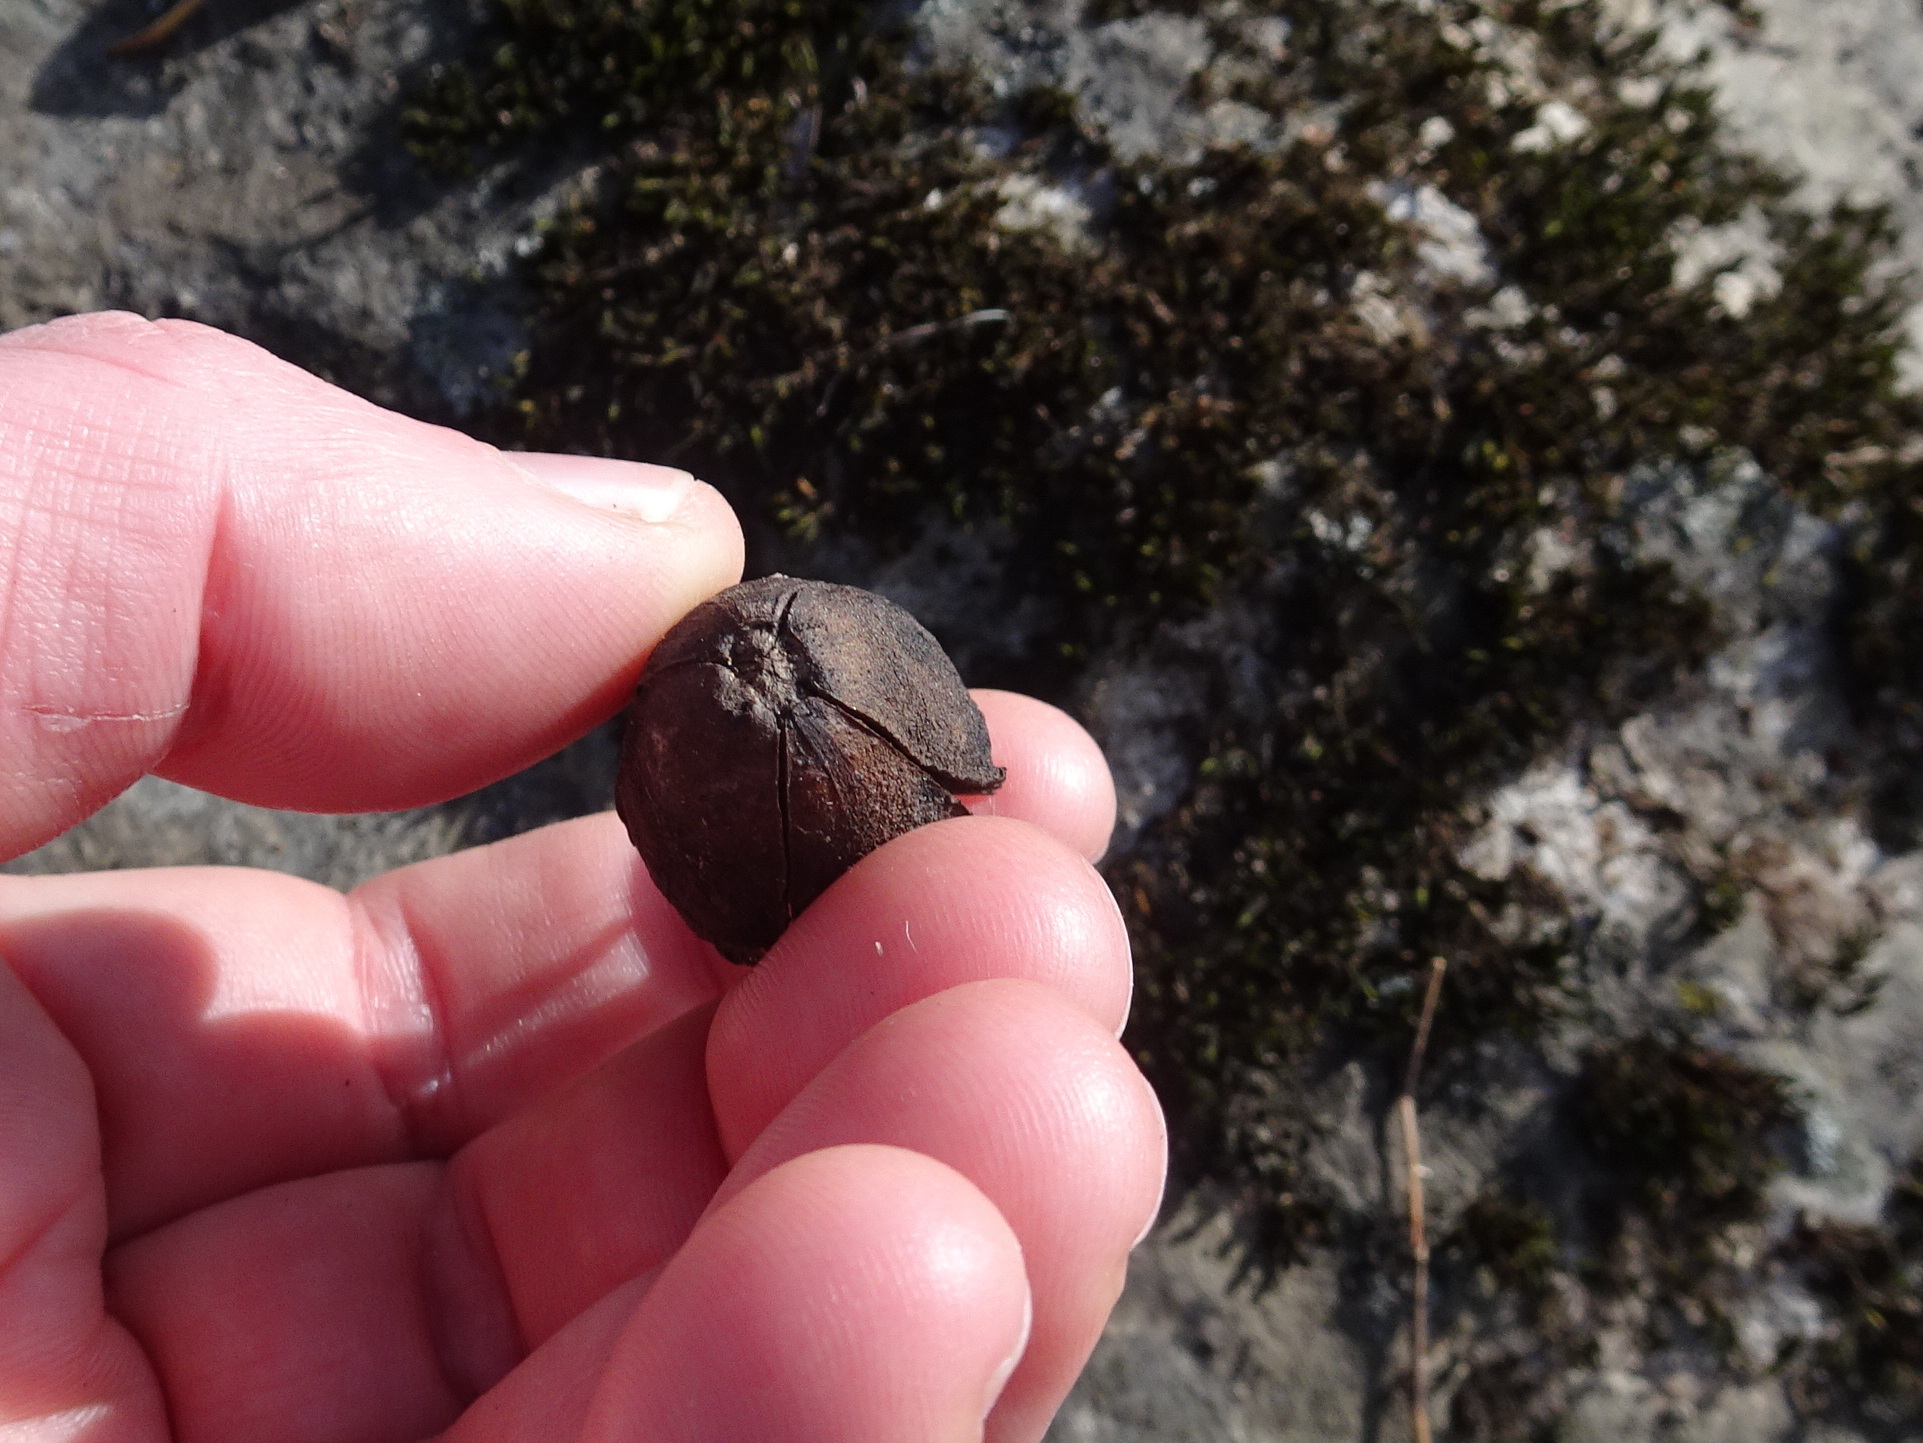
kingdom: Plantae
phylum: Tracheophyta
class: Magnoliopsida
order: Fagales
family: Juglandaceae
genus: Carya
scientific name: Carya illinoinensis
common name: Pecan
